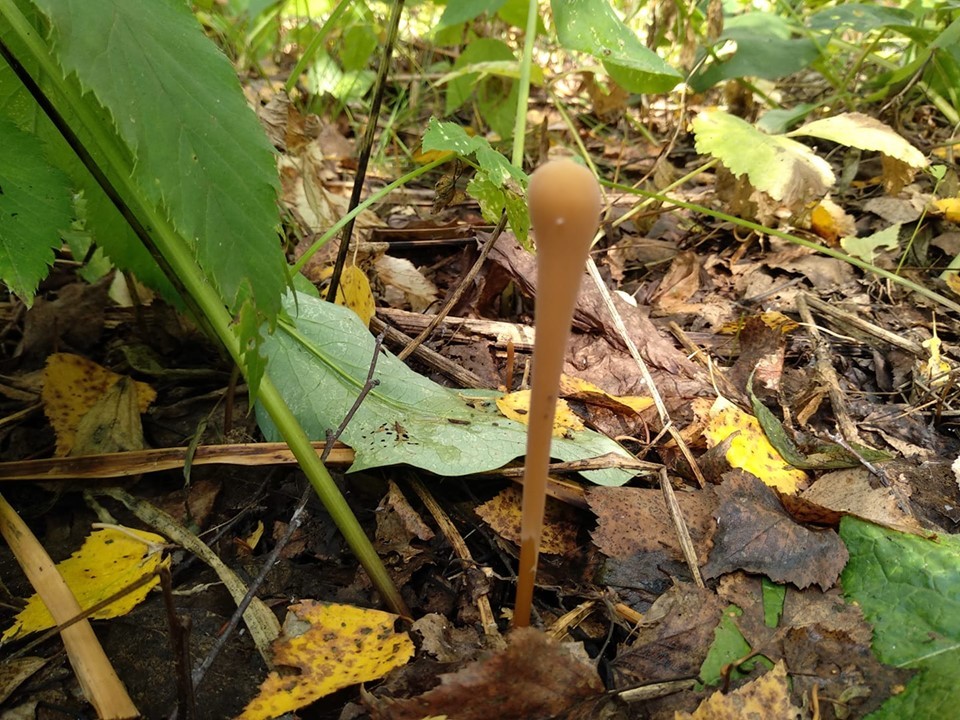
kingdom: Fungi
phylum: Basidiomycota
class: Agaricomycetes
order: Agaricales
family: Typhulaceae
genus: Typhula
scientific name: Typhula fistulosa
